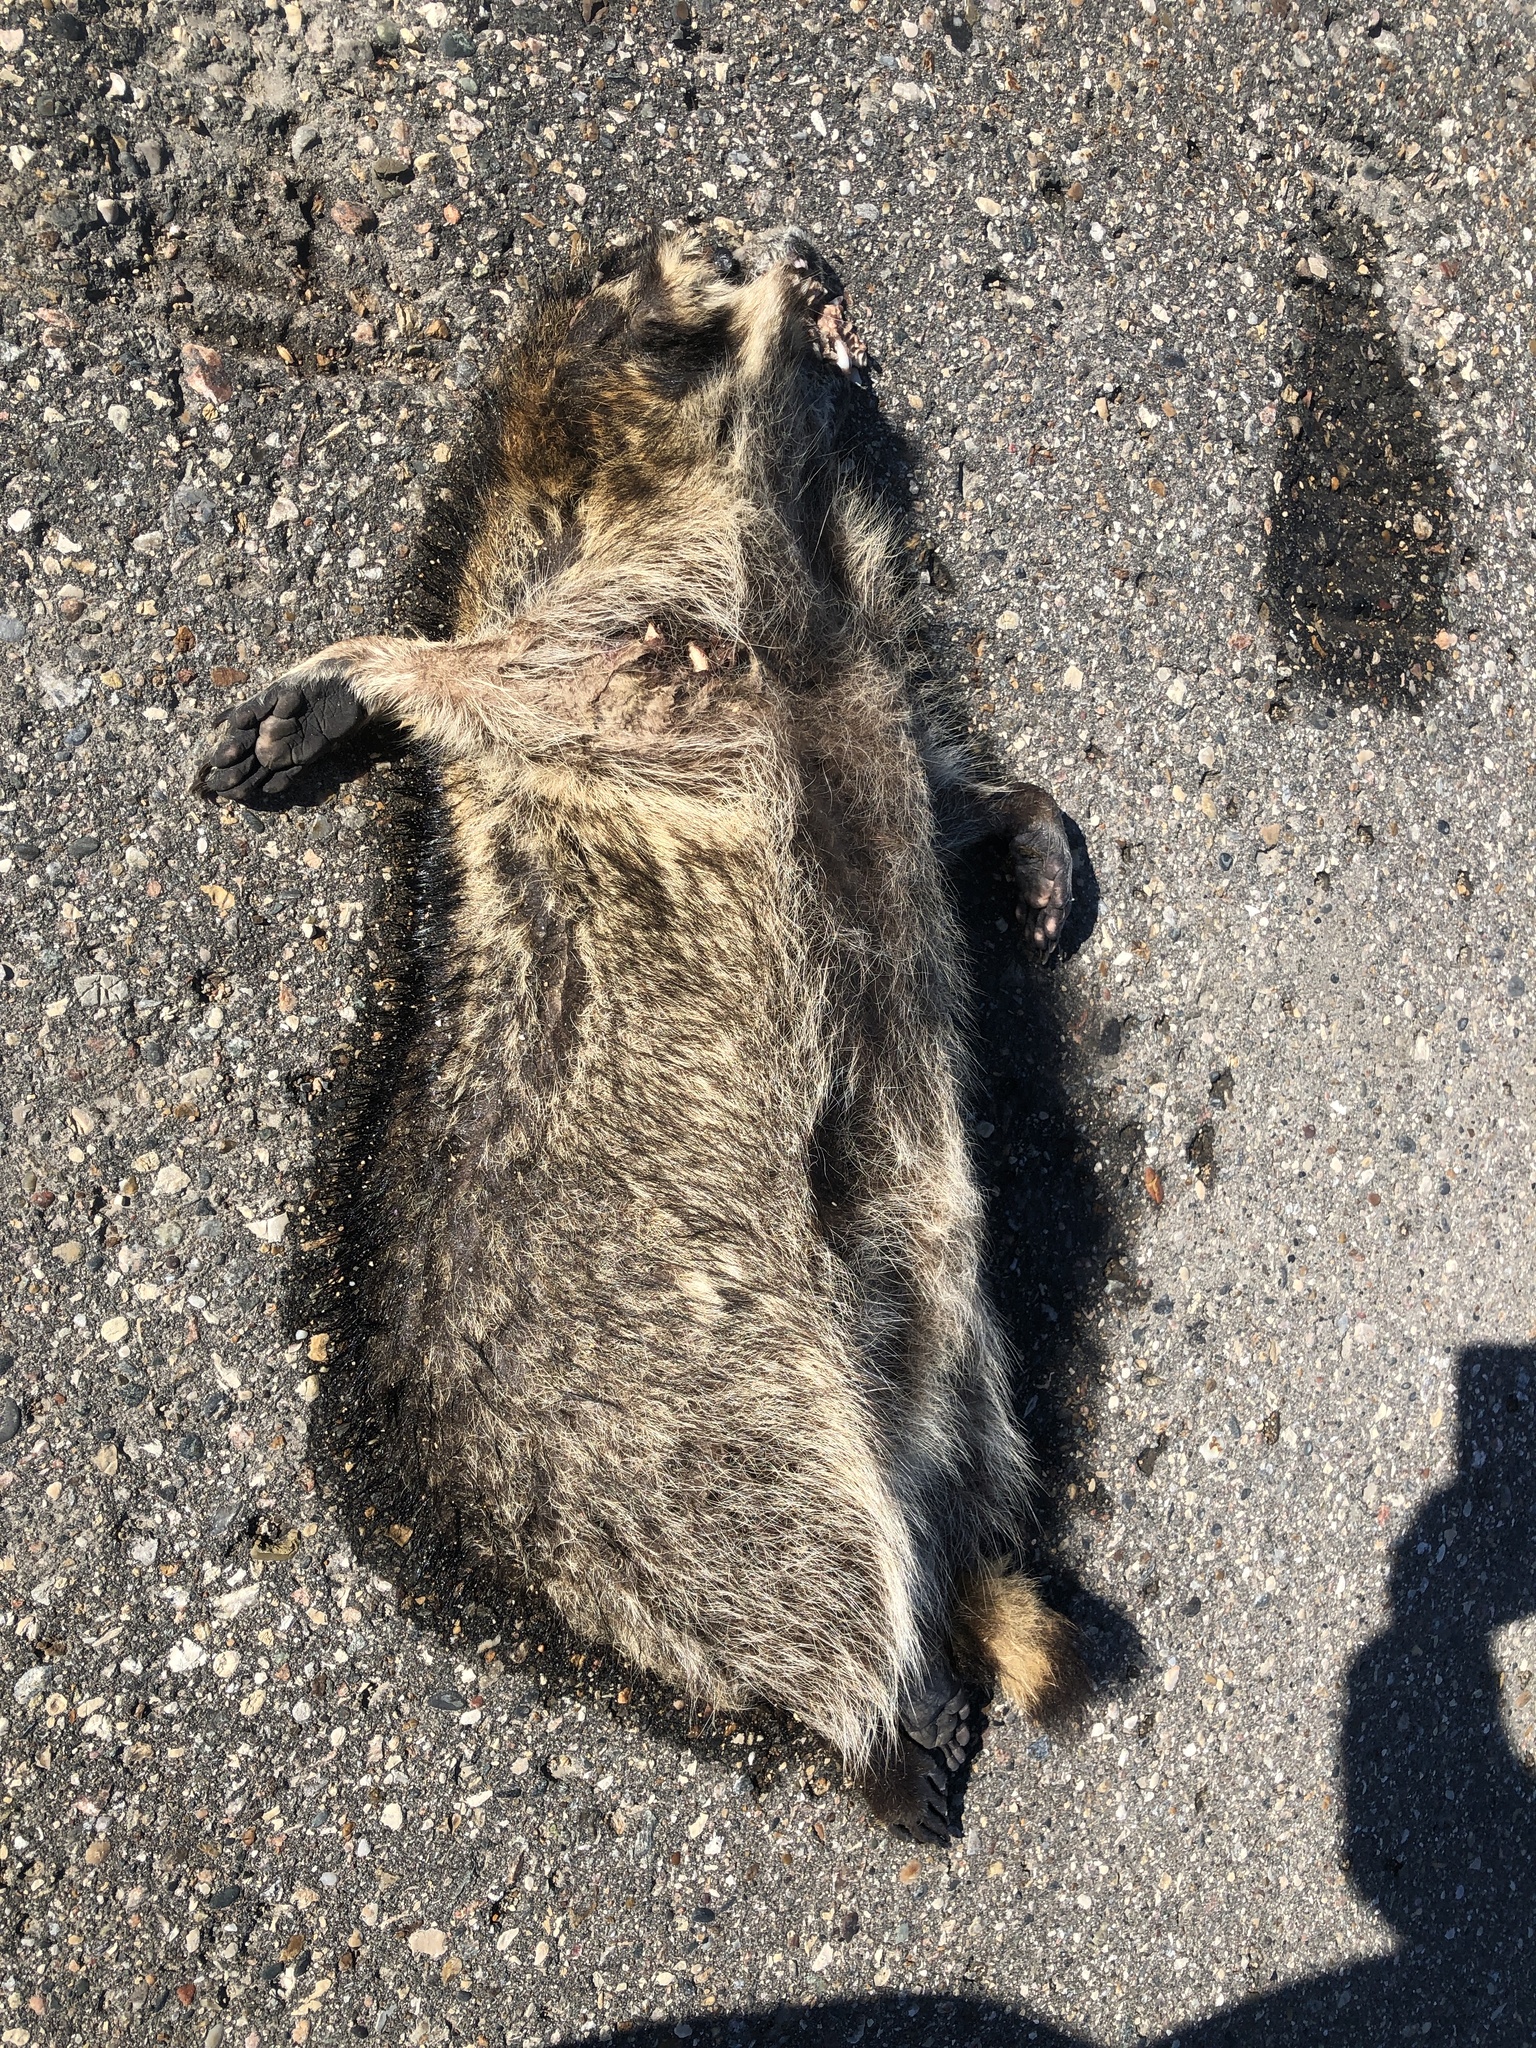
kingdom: Animalia
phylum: Chordata
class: Mammalia
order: Carnivora
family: Procyonidae
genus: Procyon
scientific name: Procyon lotor
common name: Raccoon
